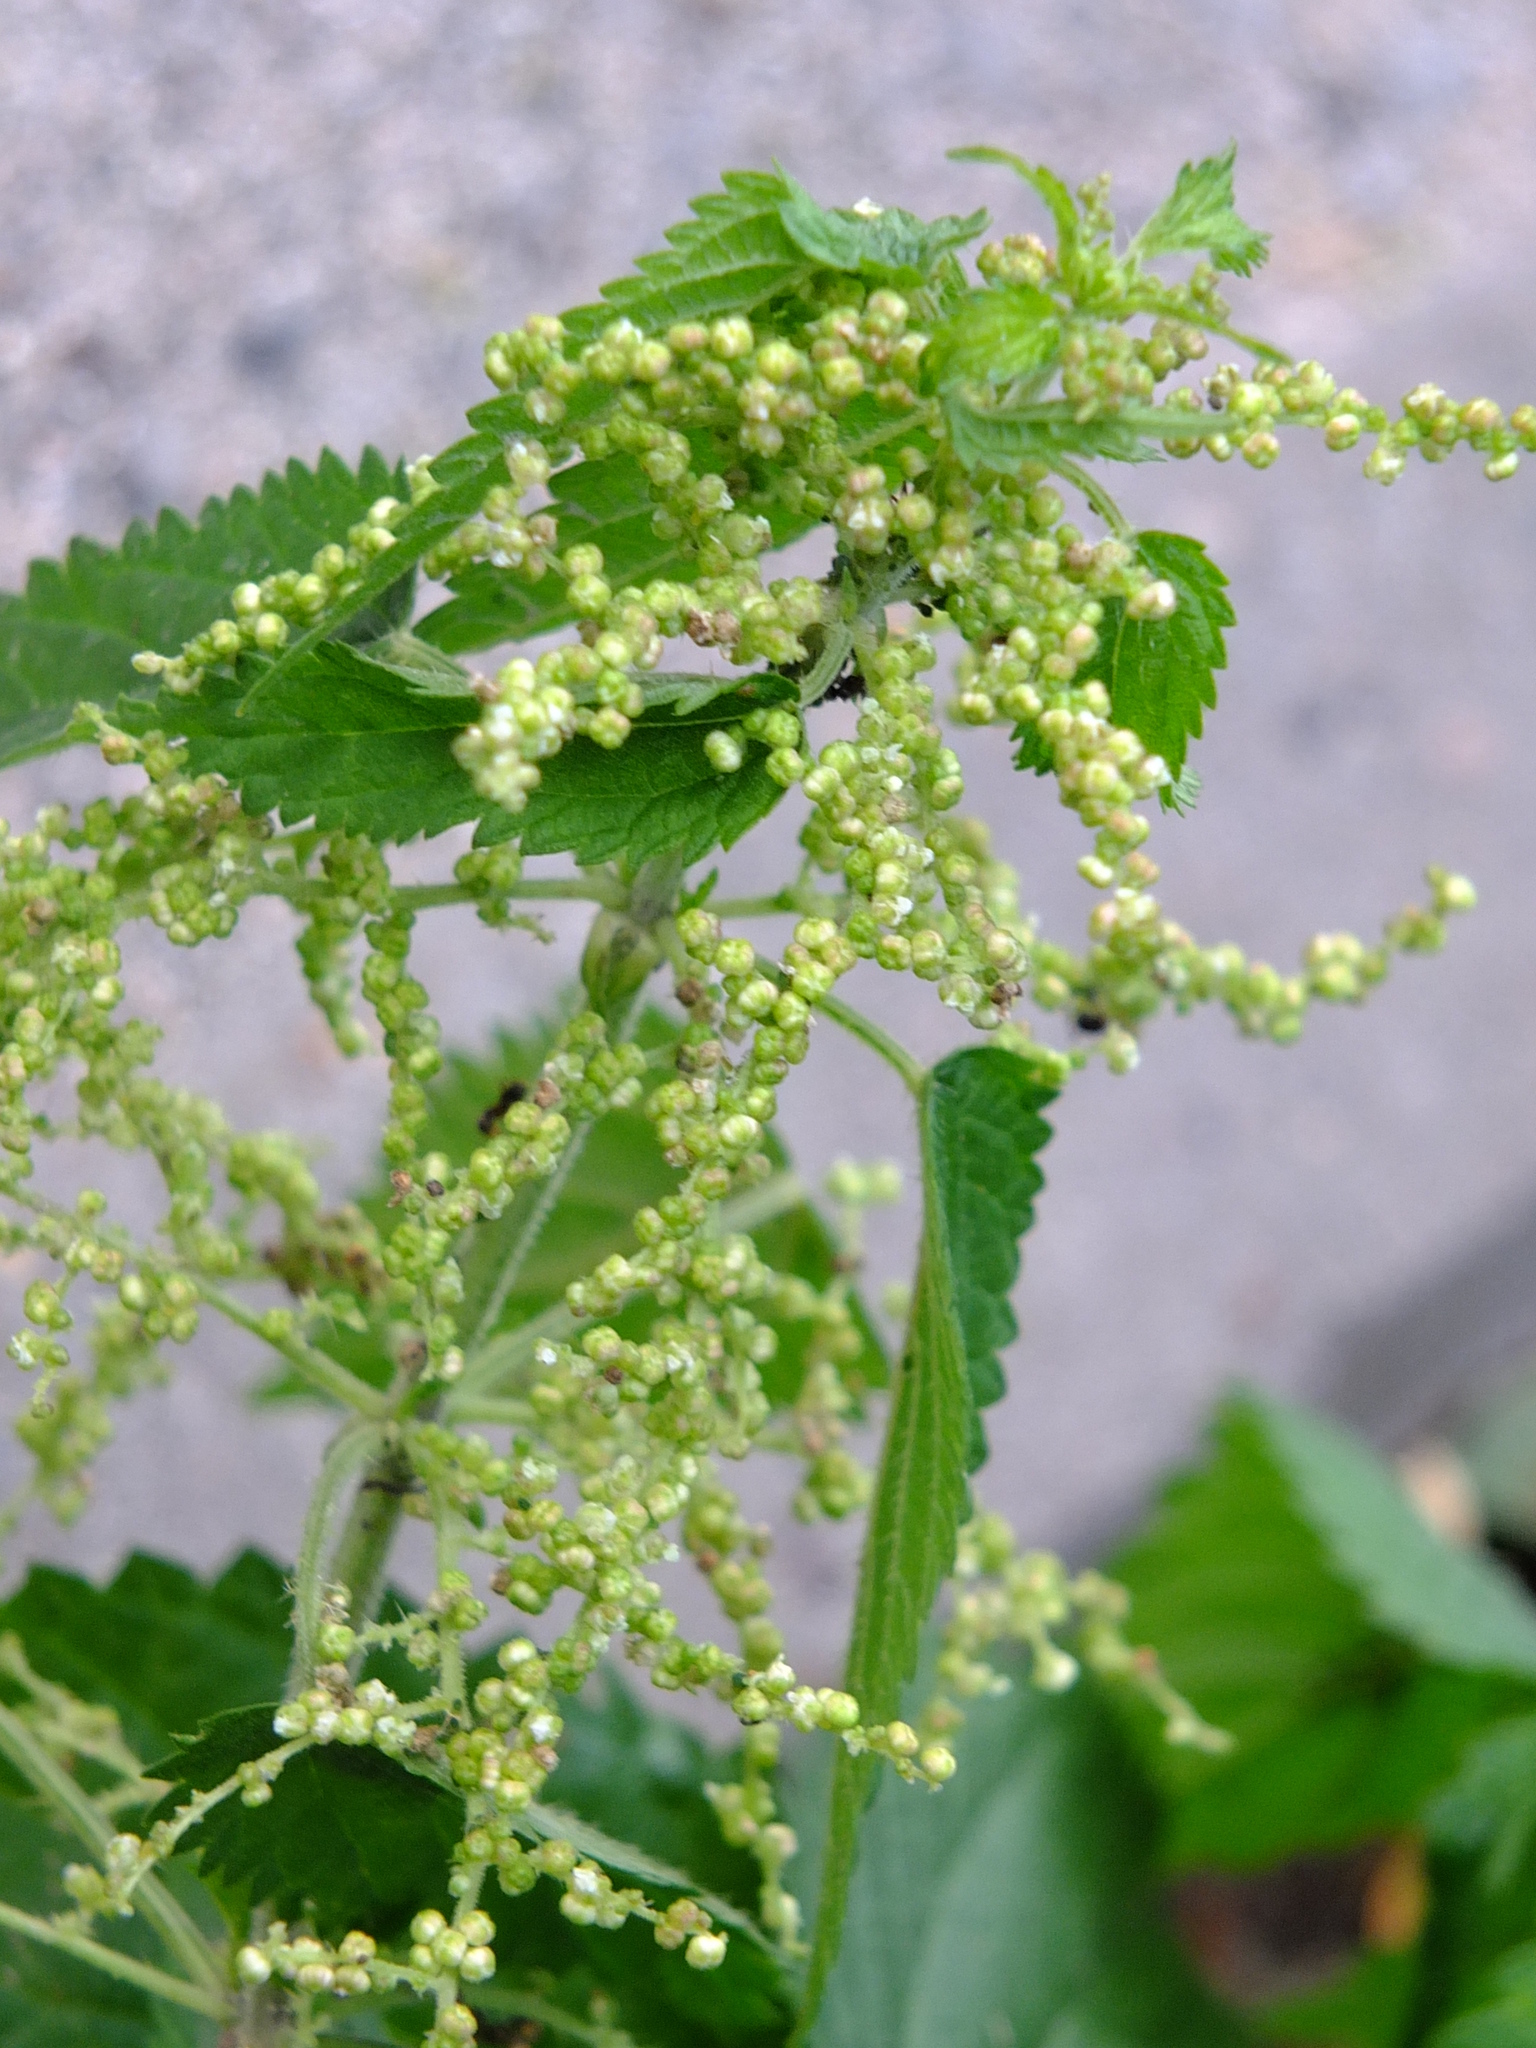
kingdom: Plantae
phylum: Tracheophyta
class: Magnoliopsida
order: Rosales
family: Urticaceae
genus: Urtica
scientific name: Urtica dioica
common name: Common nettle
